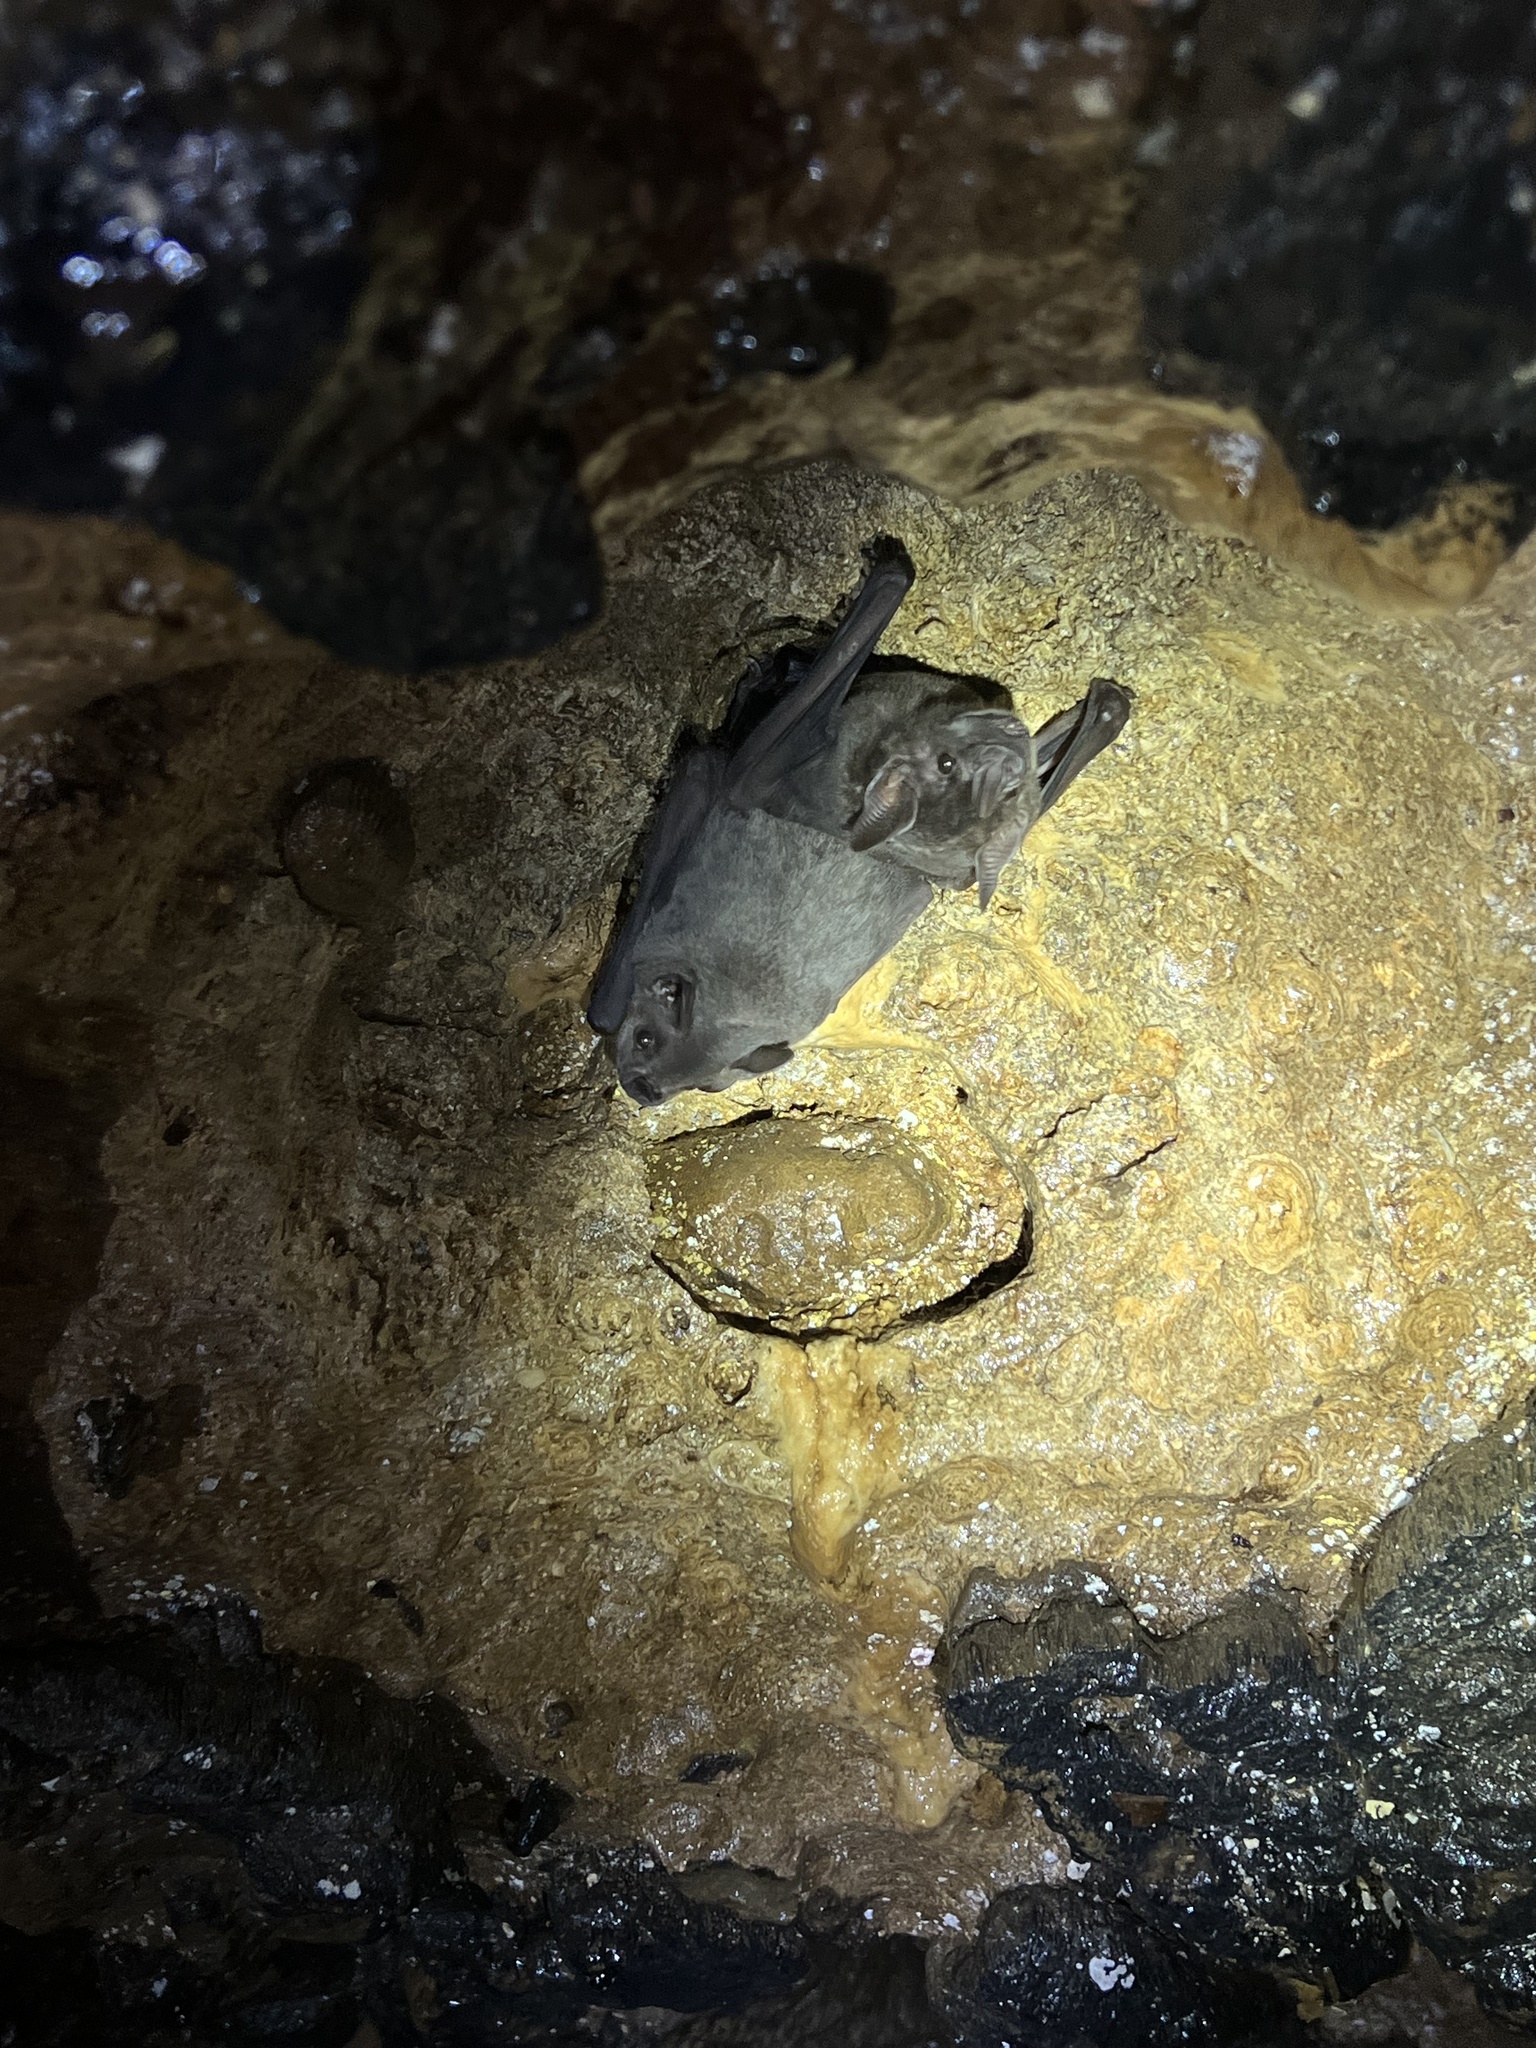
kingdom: Animalia
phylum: Chordata
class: Mammalia
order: Chiroptera
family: Phyllostomidae
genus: Artibeus
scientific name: Artibeus jamaicensis
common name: Jamaican fruit-eating bat
